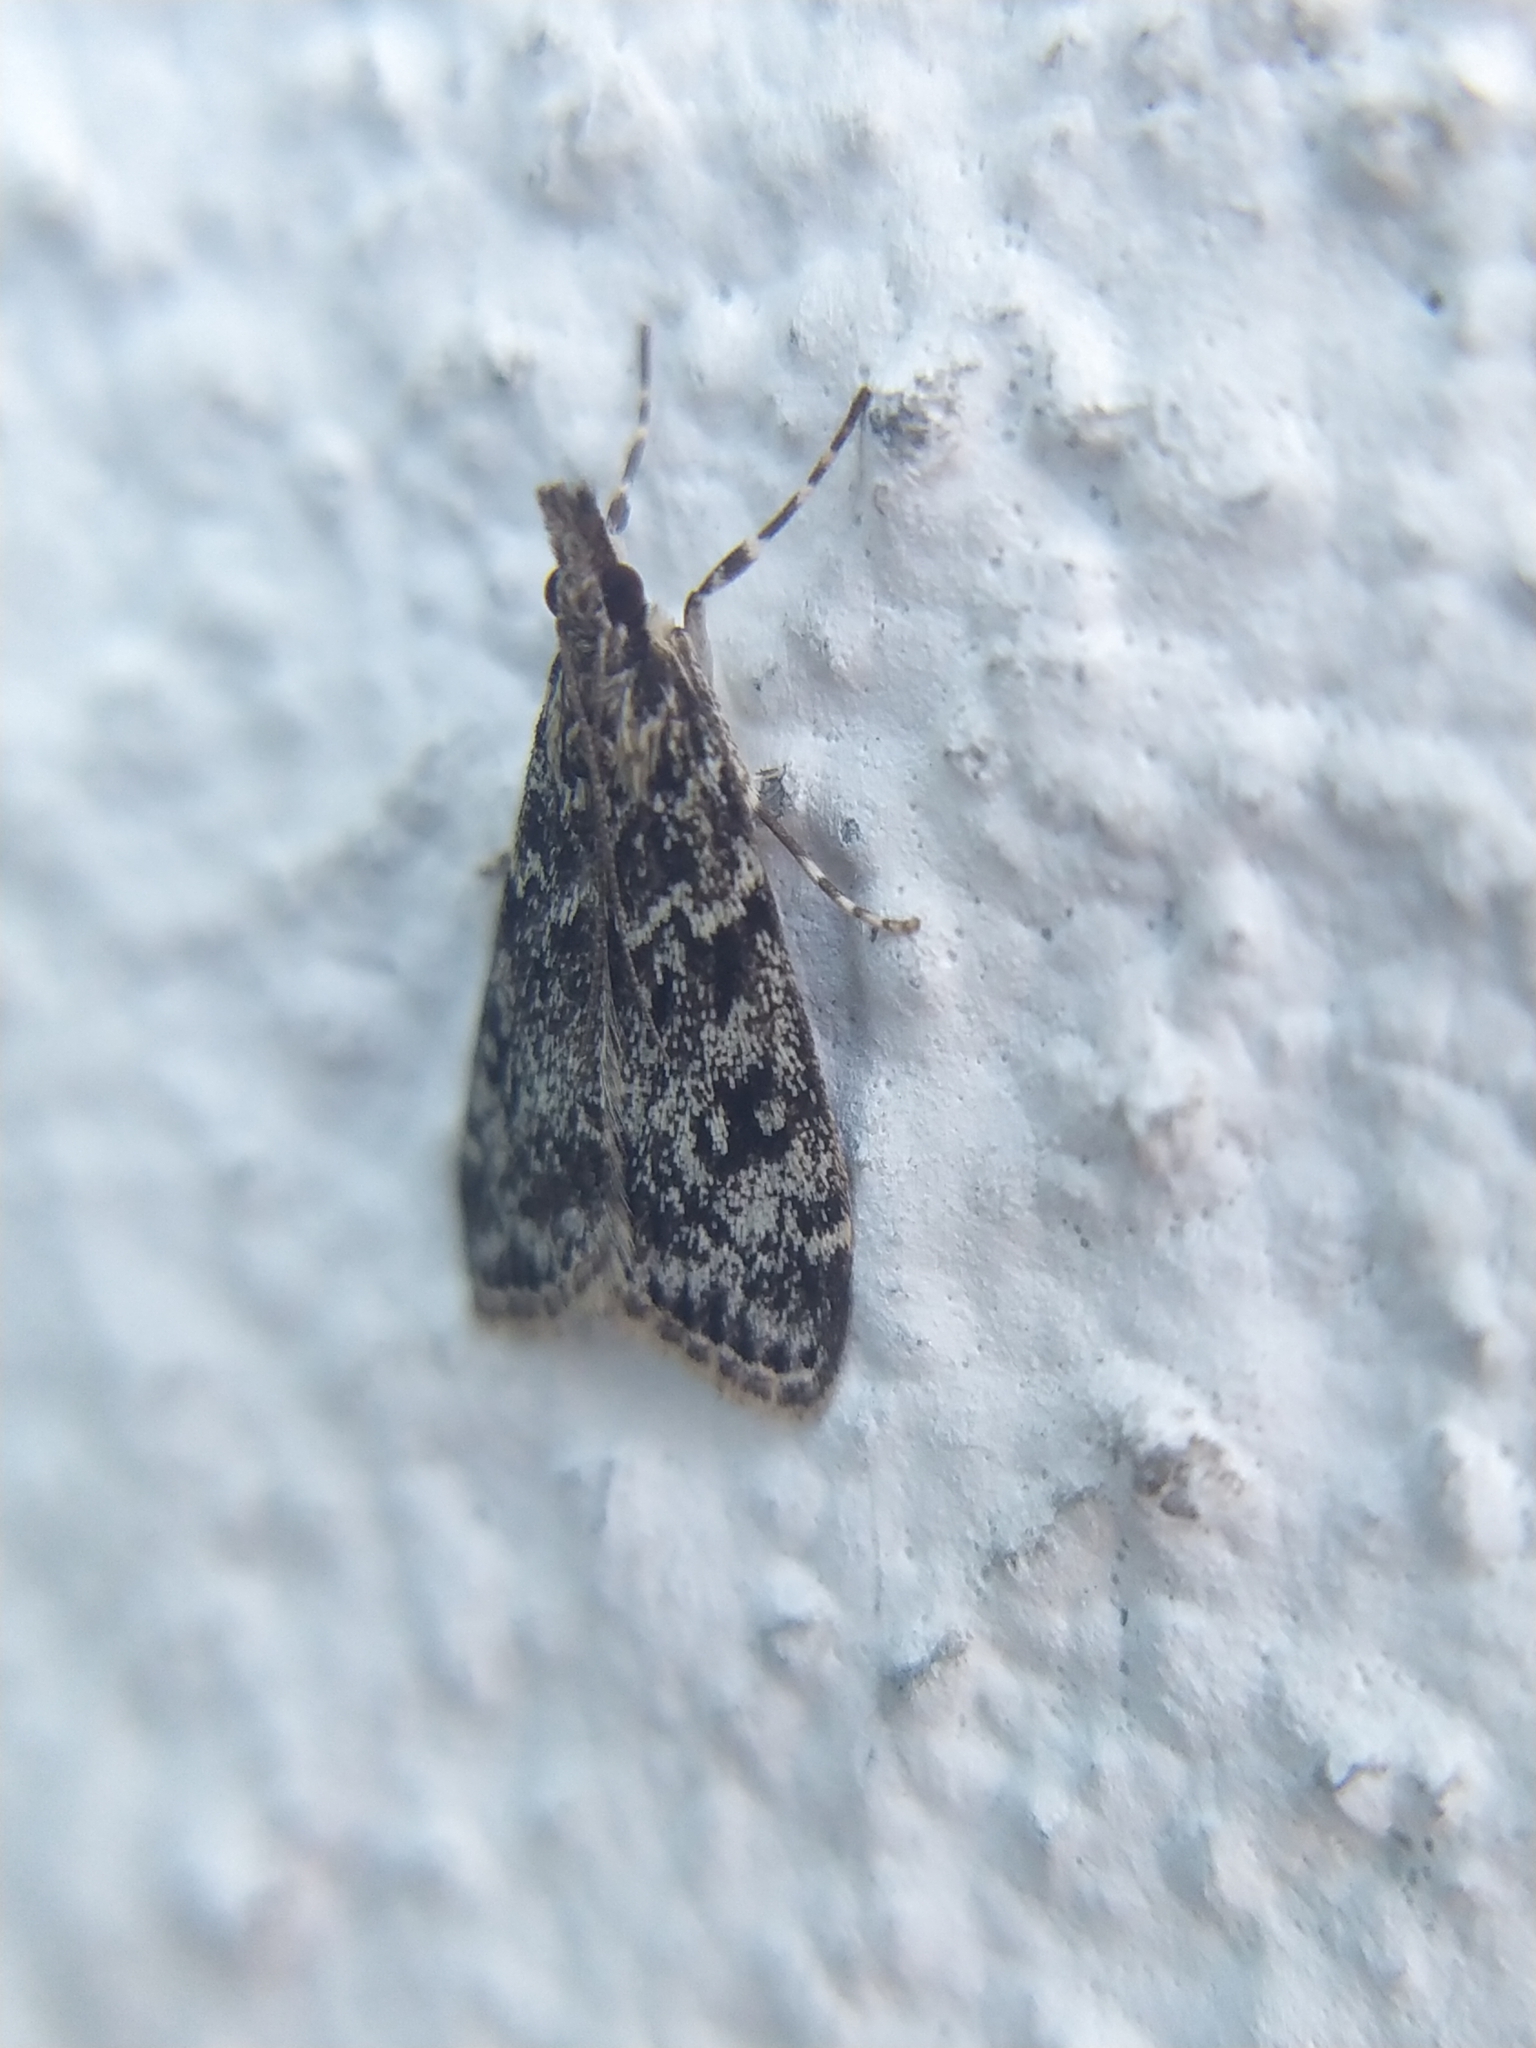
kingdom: Animalia
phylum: Arthropoda
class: Insecta
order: Lepidoptera
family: Crambidae
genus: Eudonia
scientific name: Eudonia truncicolella
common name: Ground-moss grey
